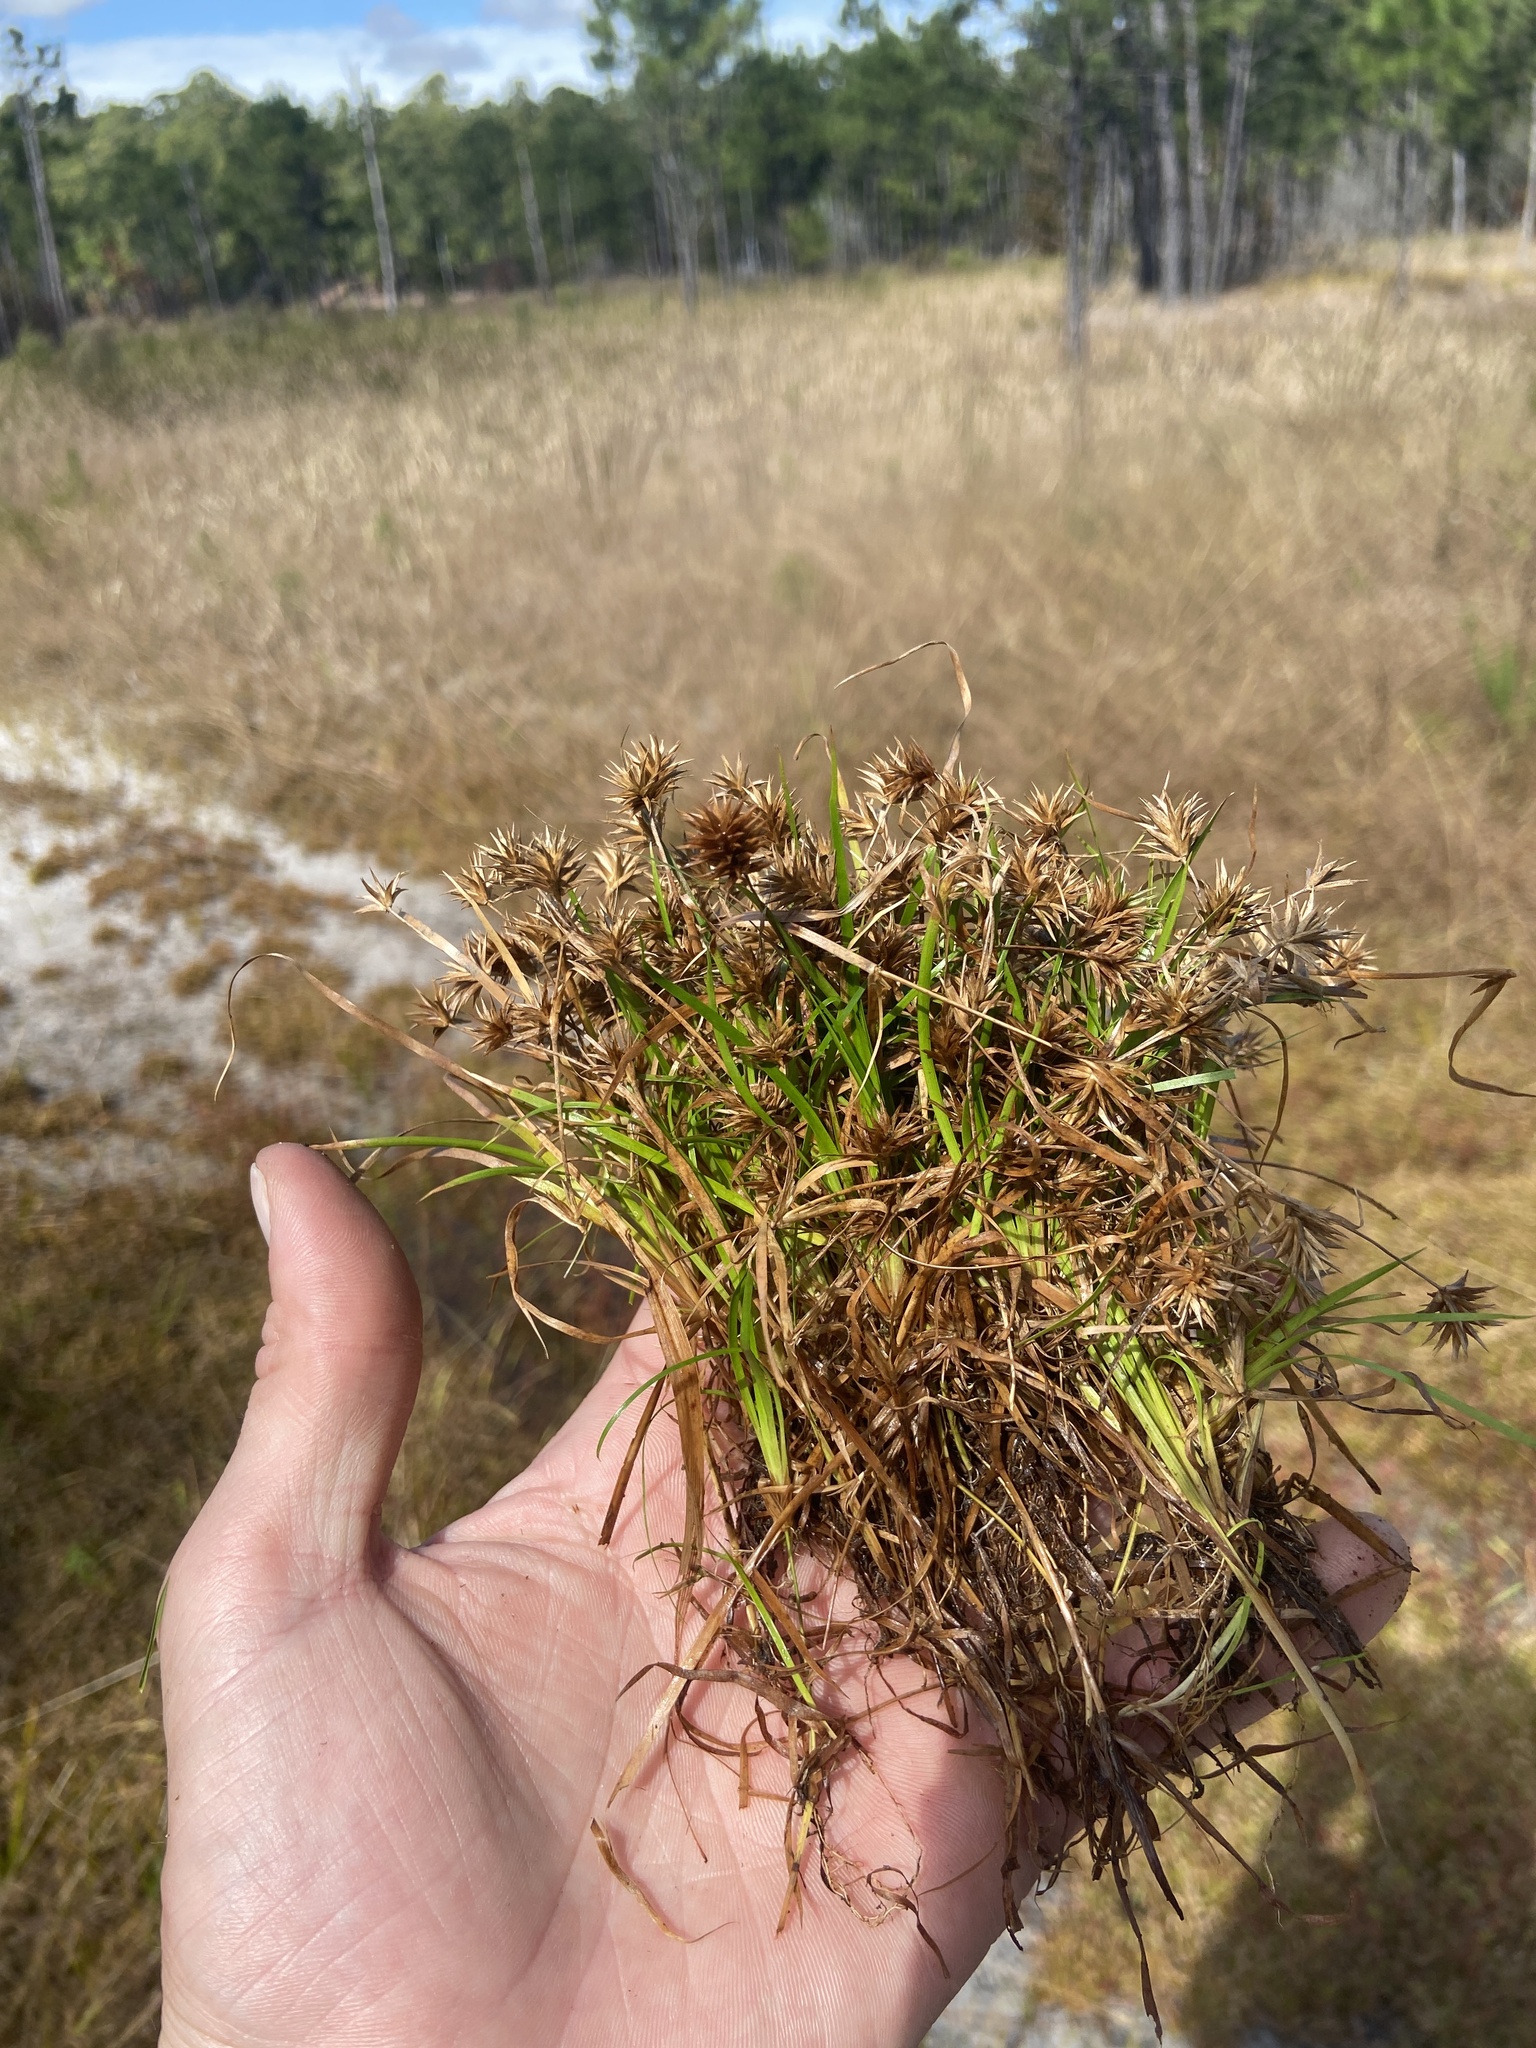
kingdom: Plantae
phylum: Tracheophyta
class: Liliopsida
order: Poales
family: Juncaceae
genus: Juncus
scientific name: Juncus repens
